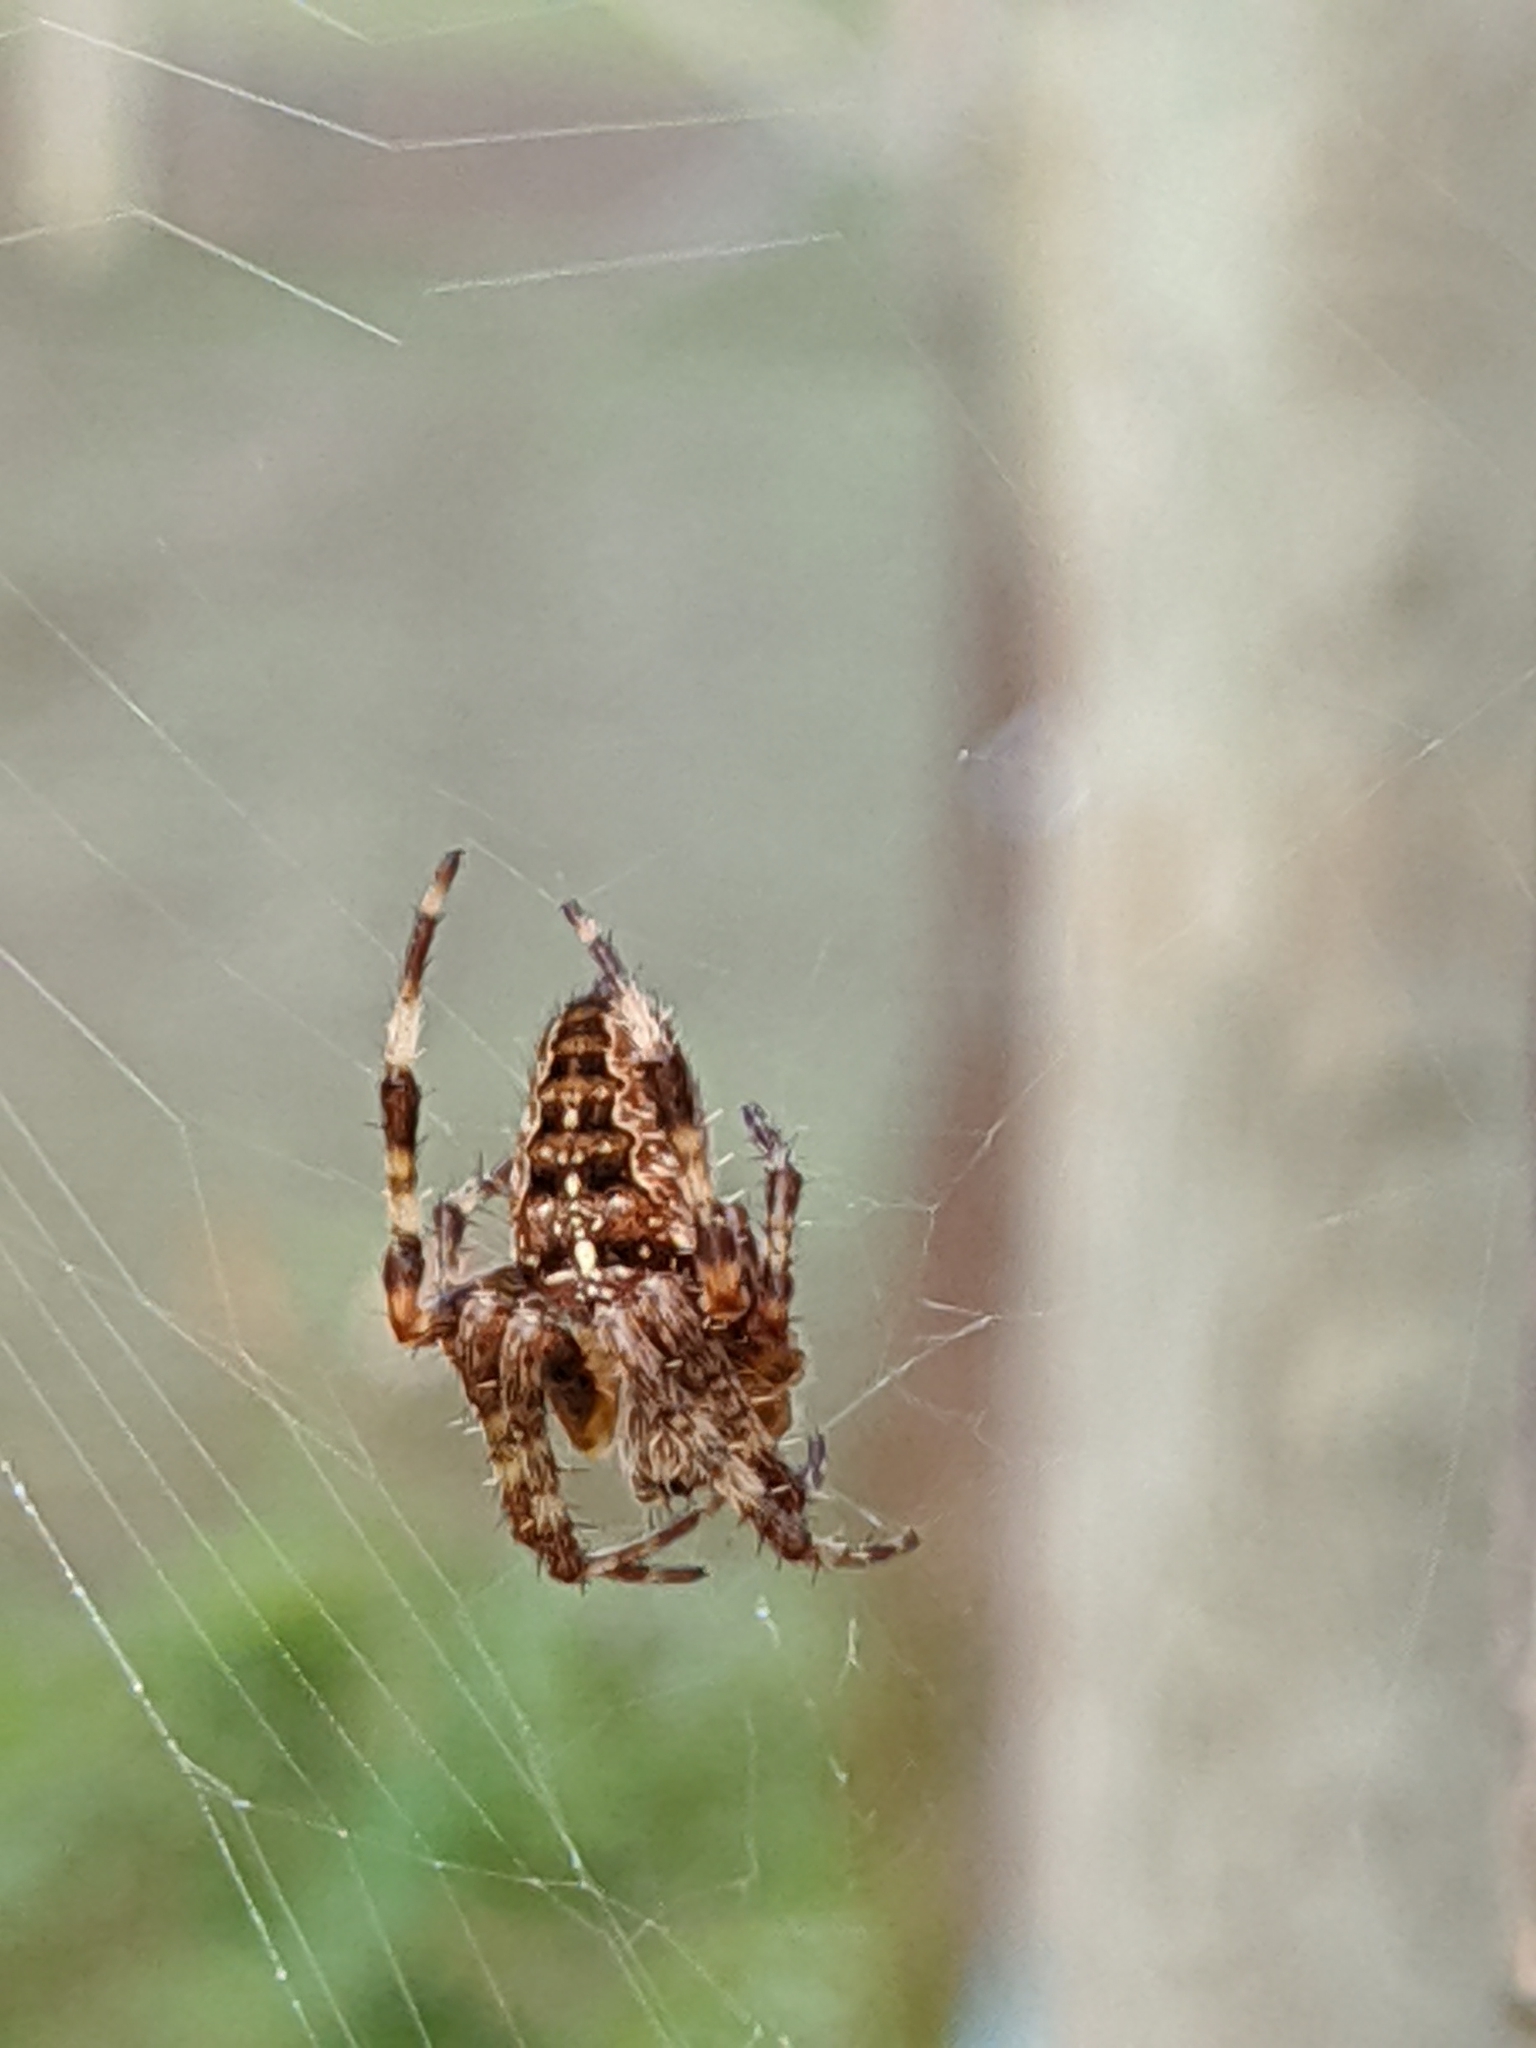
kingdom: Animalia
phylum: Arthropoda
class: Arachnida
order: Araneae
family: Araneidae
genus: Araneus
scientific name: Araneus diadematus
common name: Cross orbweaver
